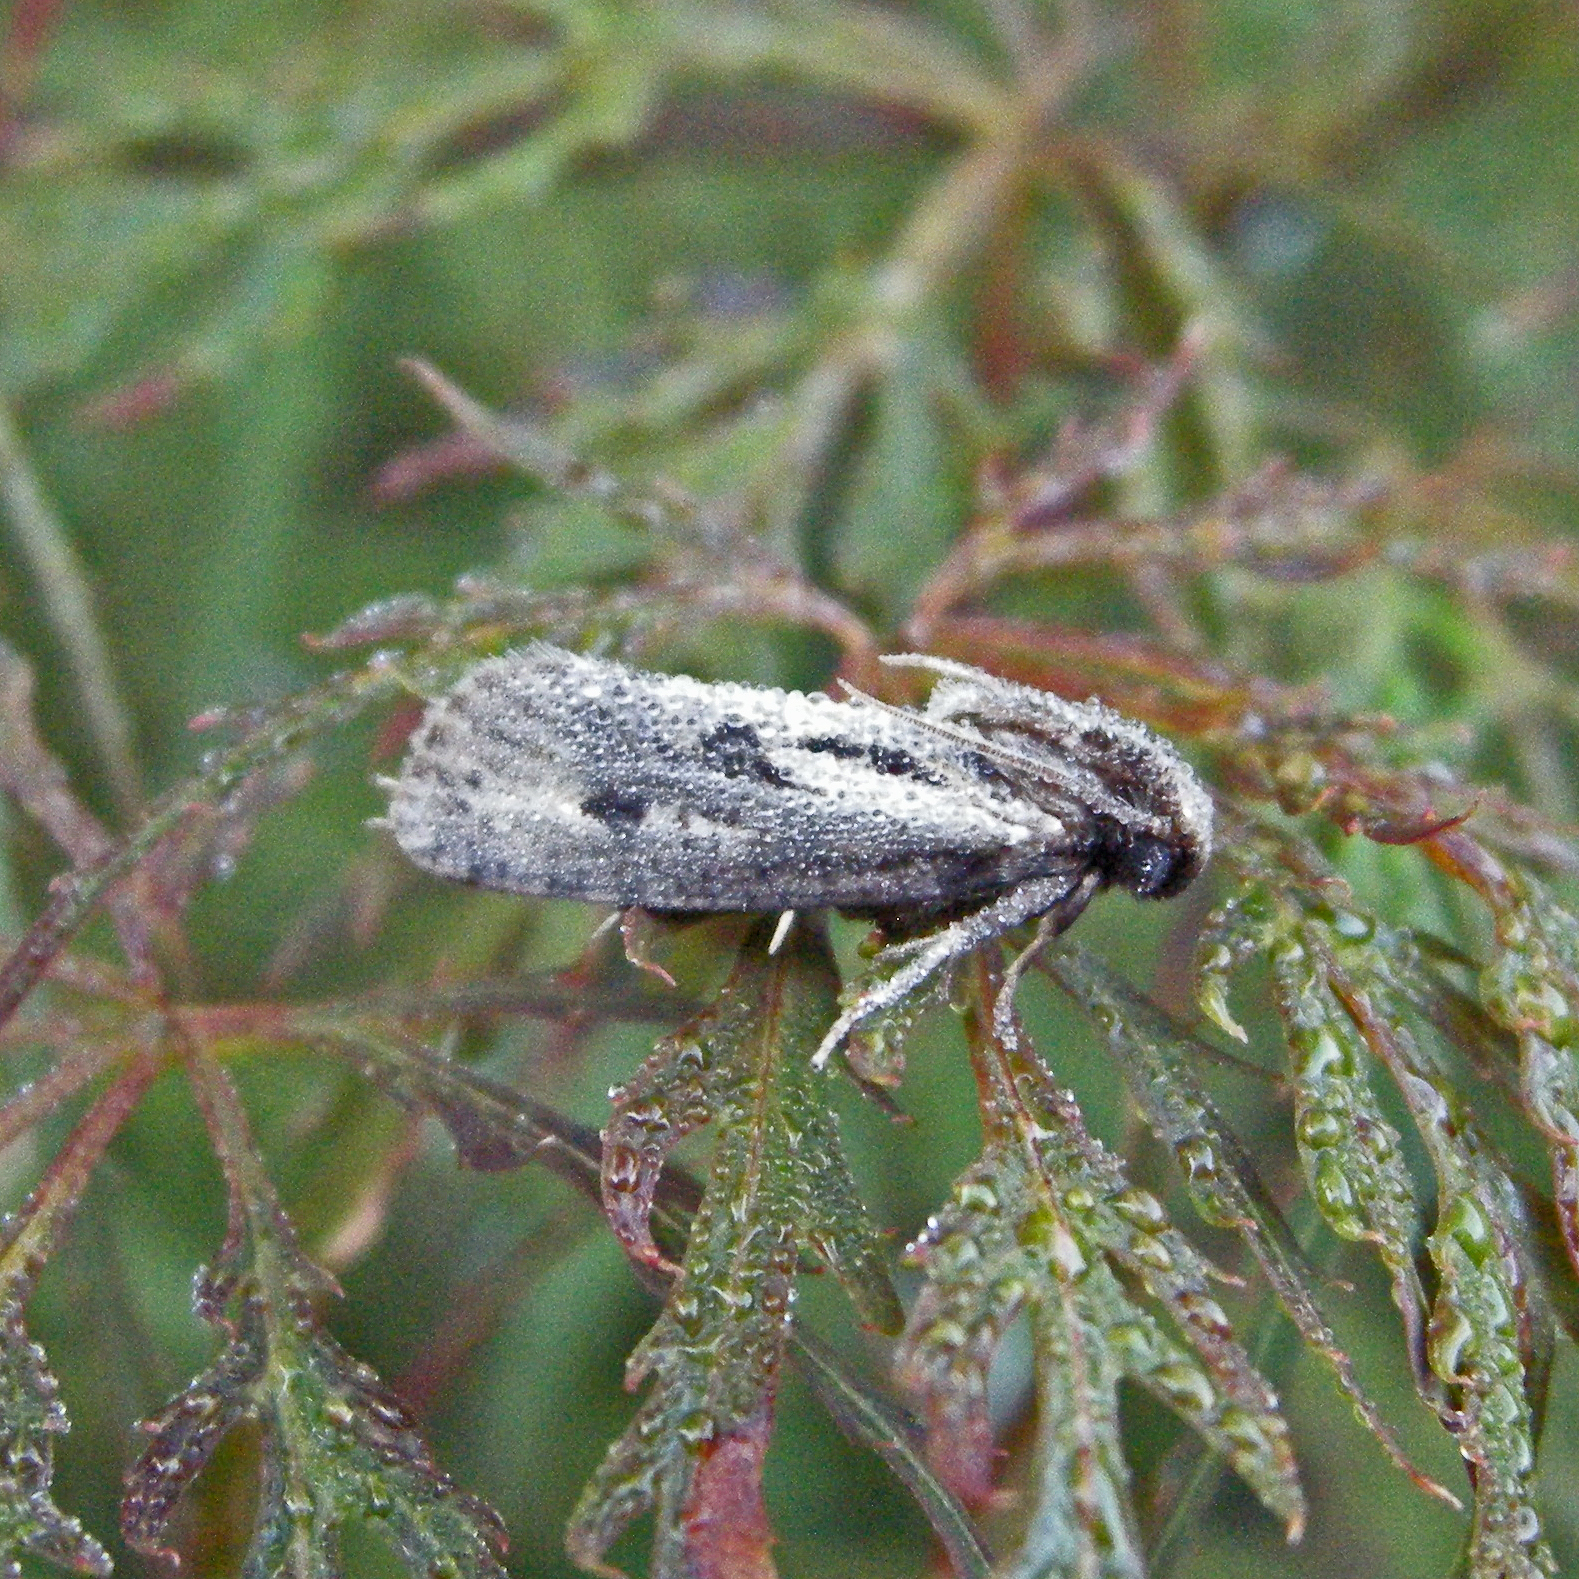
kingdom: Animalia
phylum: Arthropoda
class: Insecta
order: Lepidoptera
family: Tineidae
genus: Acrolophus
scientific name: Acrolophus popeanella
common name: Clemens' grass tubeworm moth
